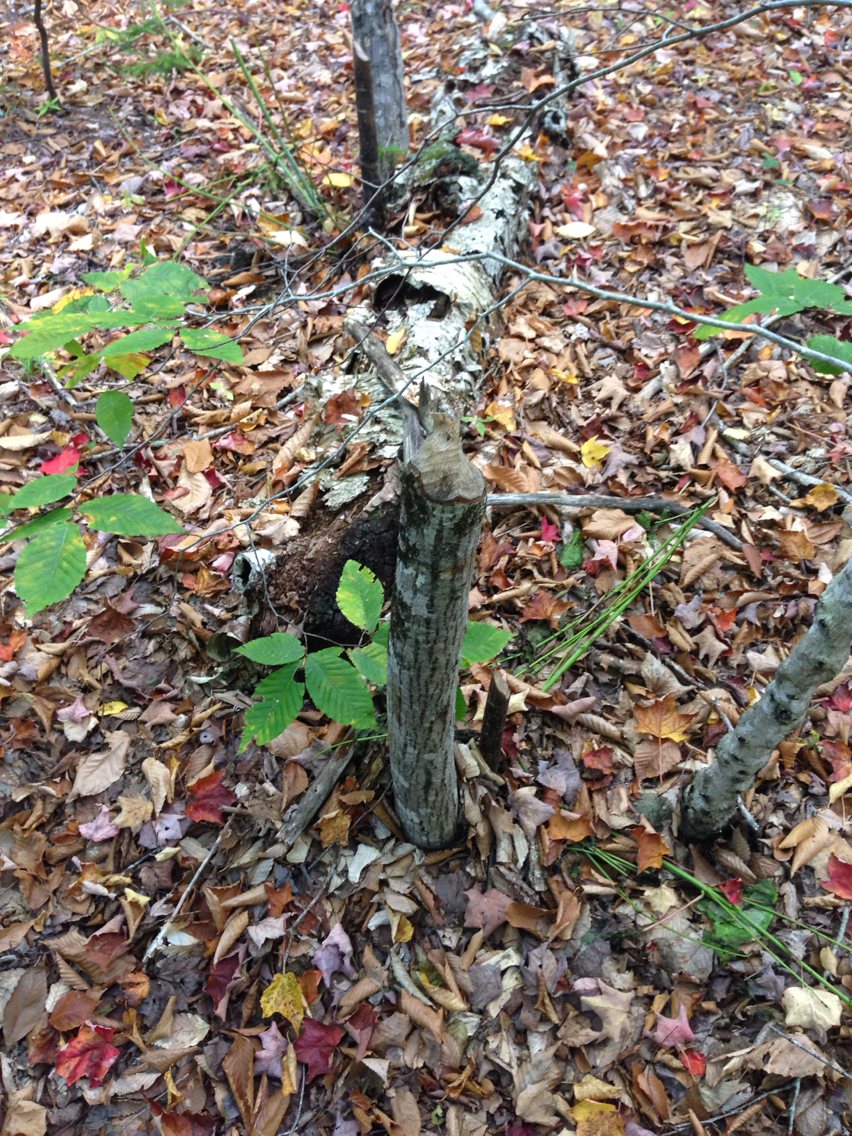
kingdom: Animalia
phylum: Chordata
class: Mammalia
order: Rodentia
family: Castoridae
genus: Castor
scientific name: Castor canadensis
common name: American beaver
